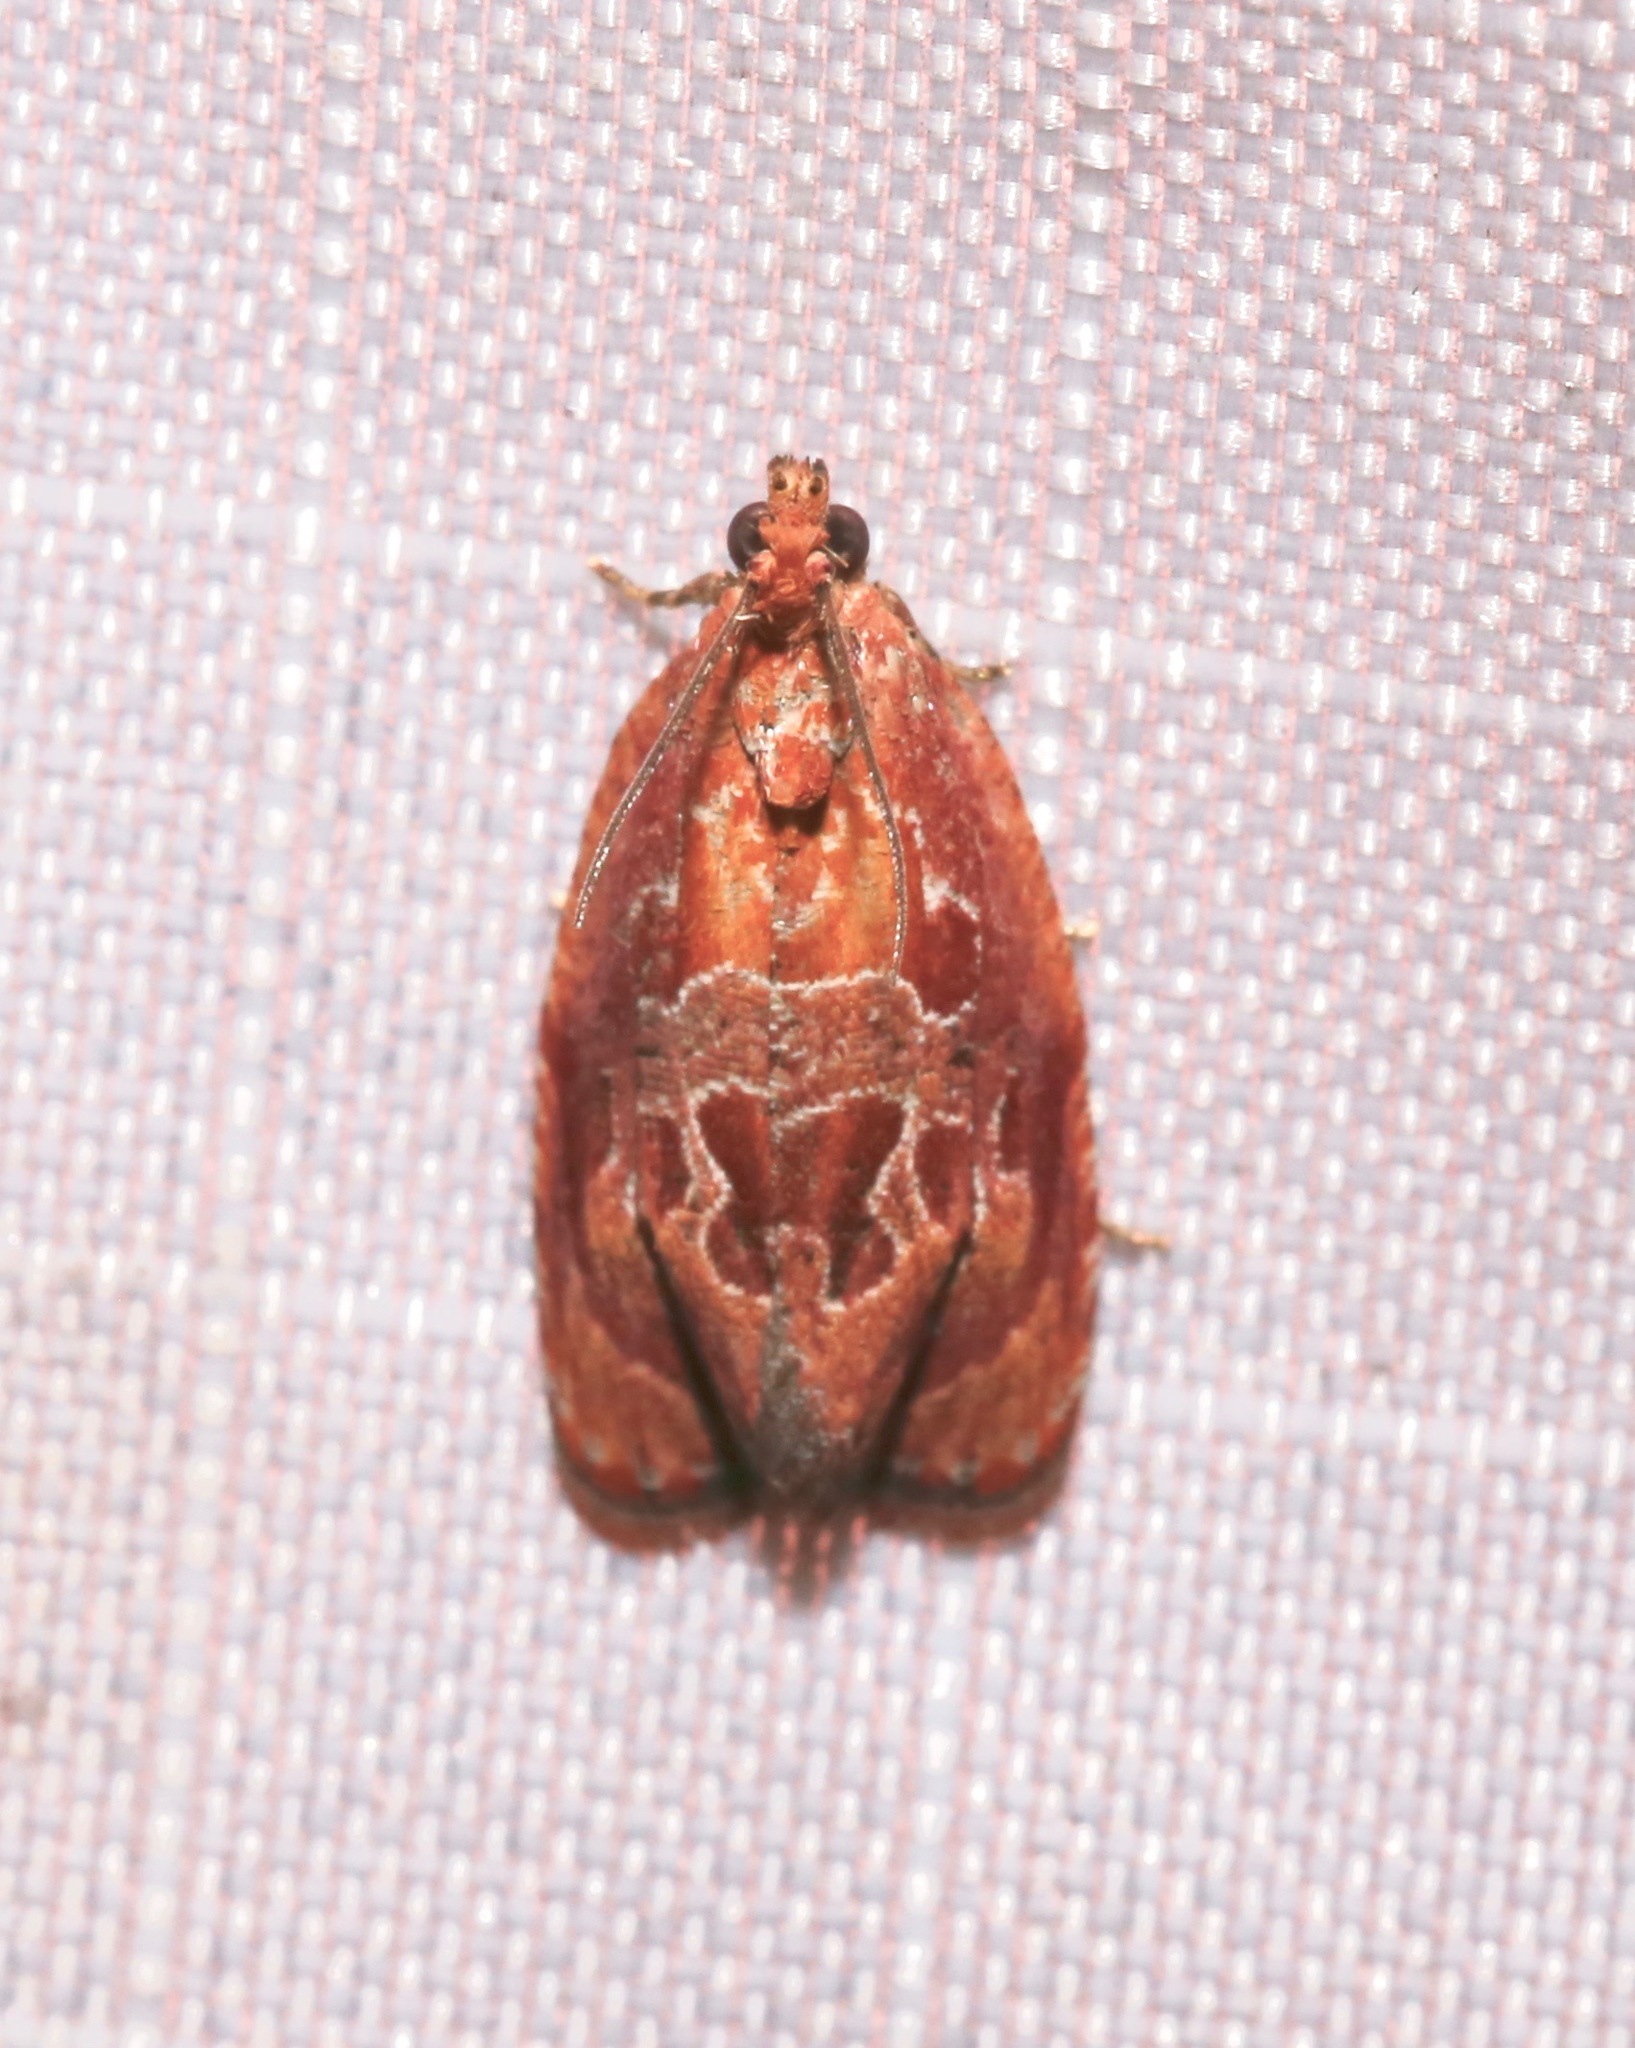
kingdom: Animalia
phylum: Arthropoda
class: Insecta
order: Lepidoptera
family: Tortricidae
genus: Zomaria
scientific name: Zomaria andromedana
